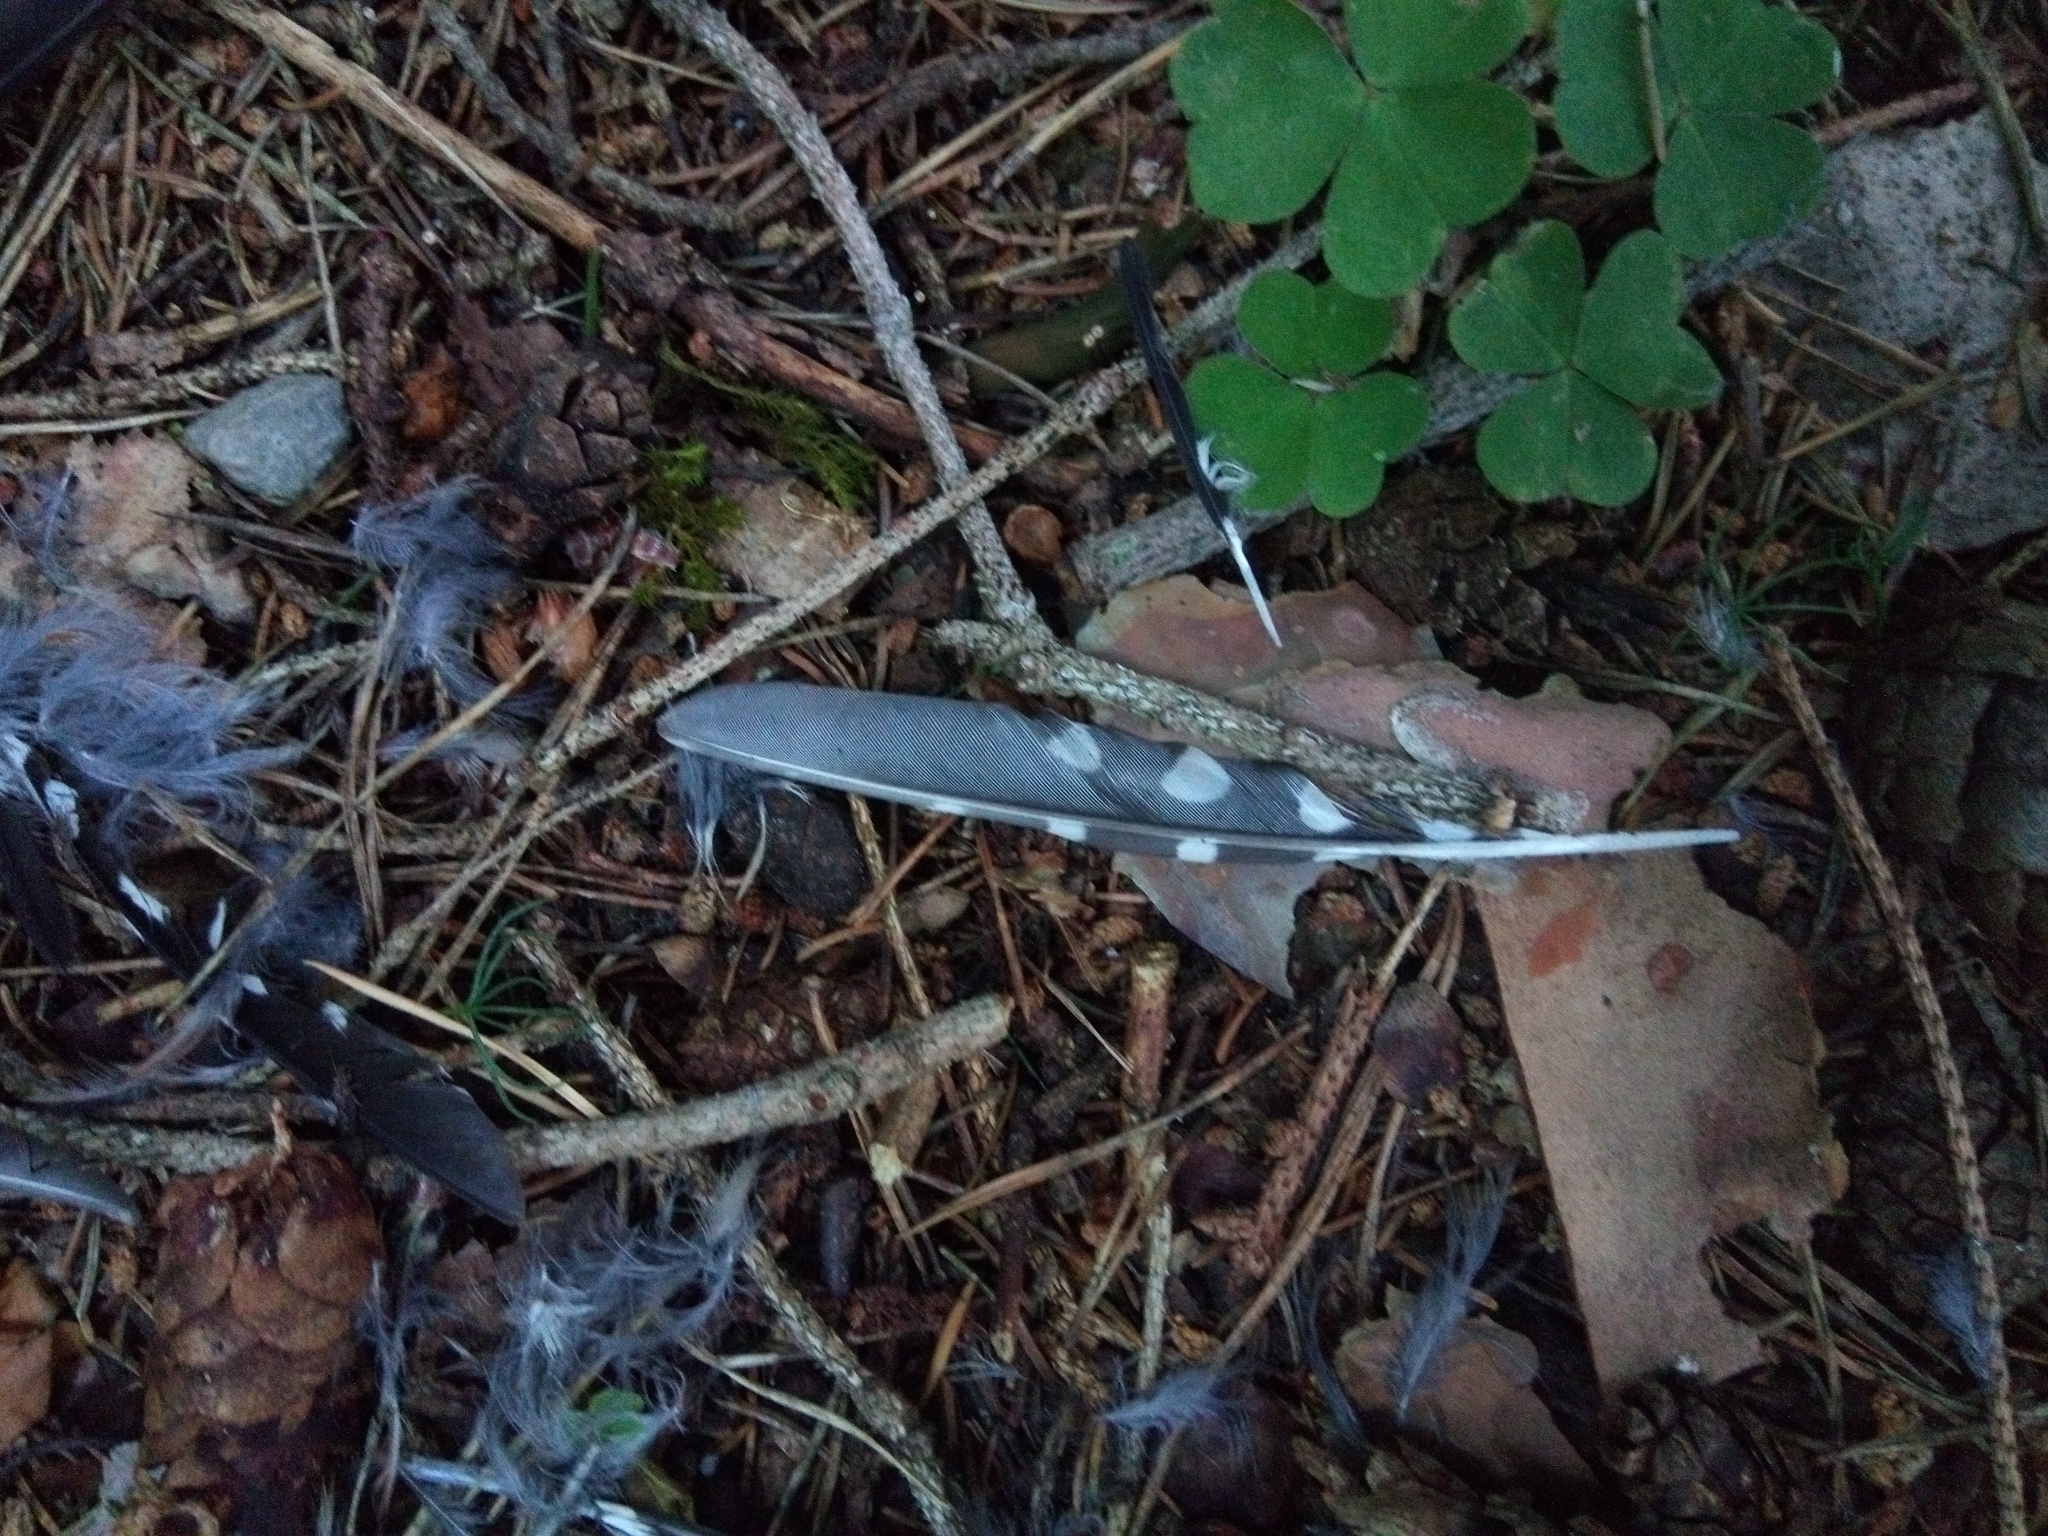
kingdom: Animalia
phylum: Chordata
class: Aves
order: Piciformes
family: Picidae
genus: Dendrocopos
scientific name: Dendrocopos major
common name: Great spotted woodpecker
